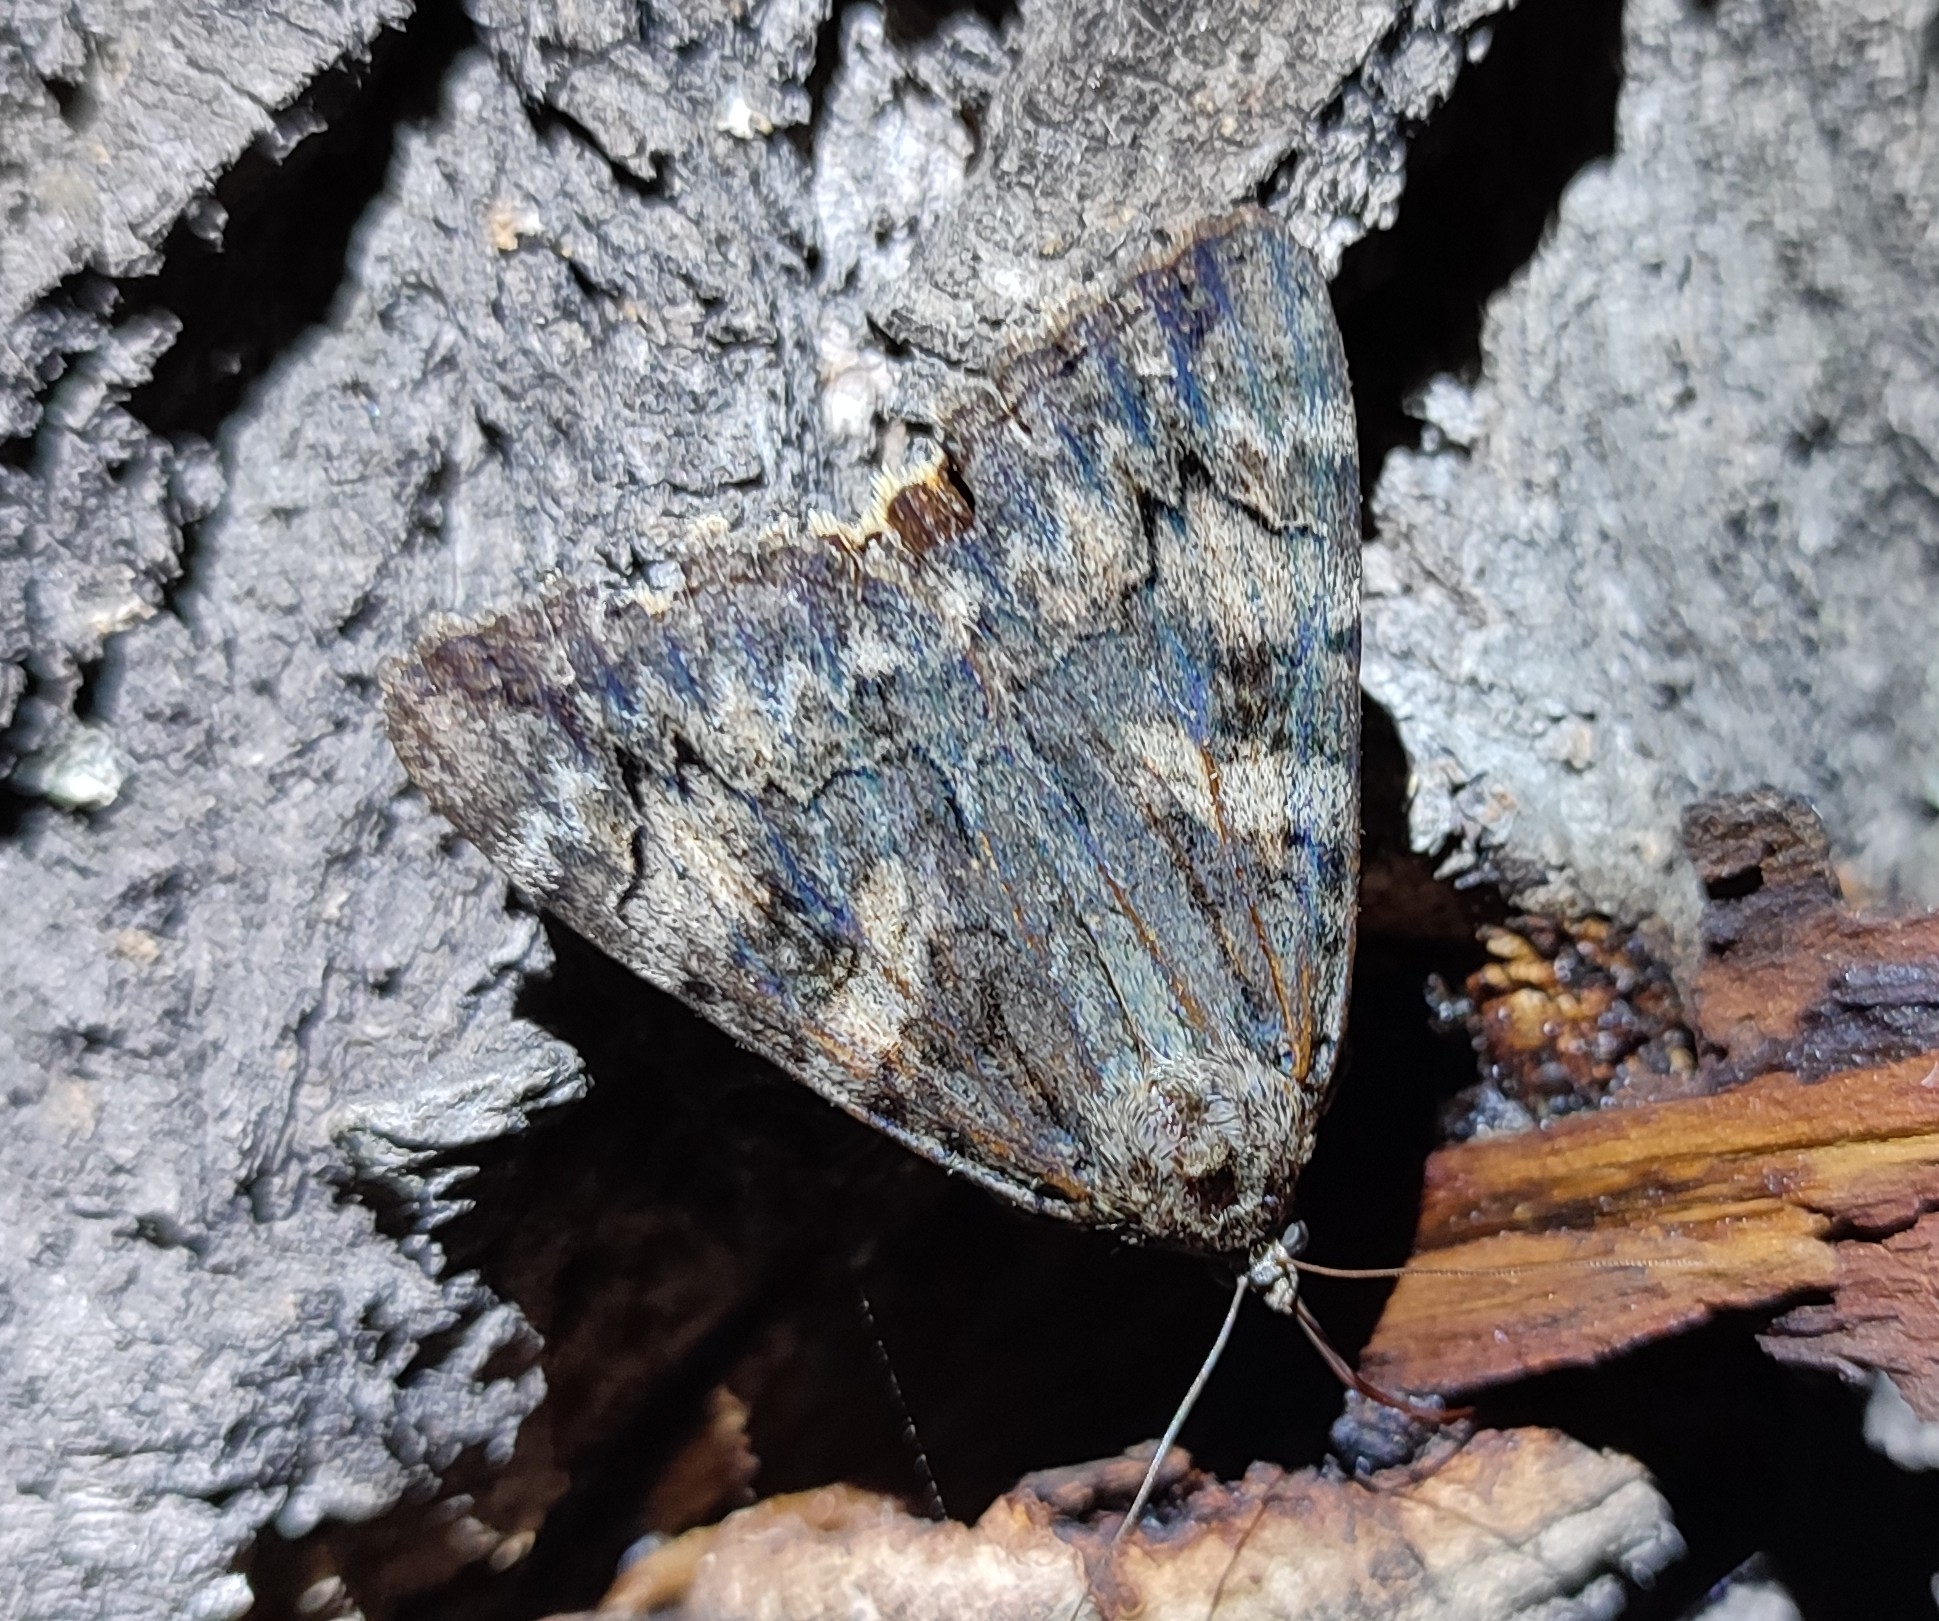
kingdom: Animalia
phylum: Arthropoda
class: Insecta
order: Lepidoptera
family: Erebidae
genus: Catocala
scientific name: Catocala helena
